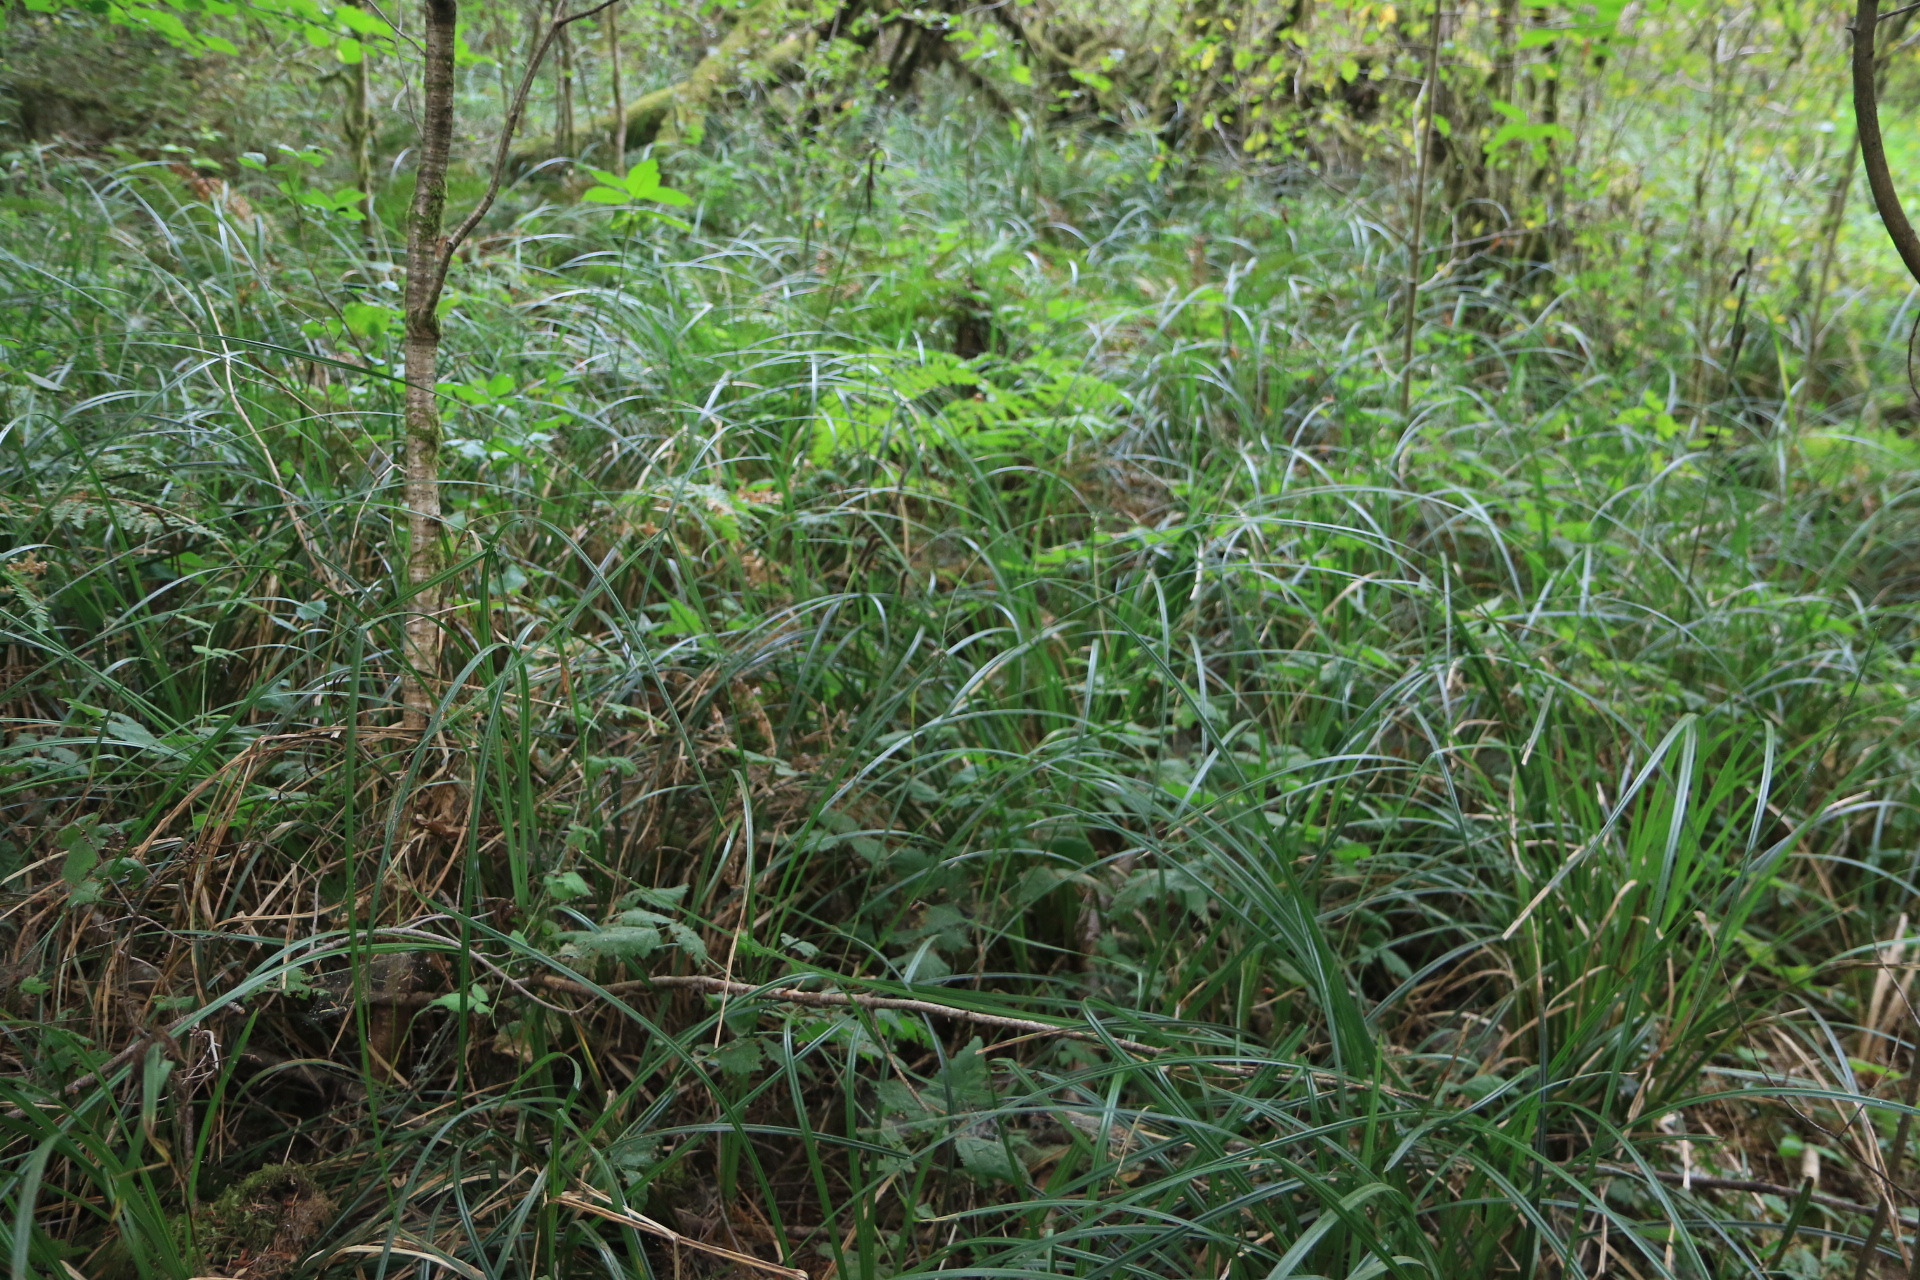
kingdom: Plantae
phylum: Tracheophyta
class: Liliopsida
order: Poales
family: Cyperaceae
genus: Carex
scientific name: Carex obnupta
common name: Slough sedge
